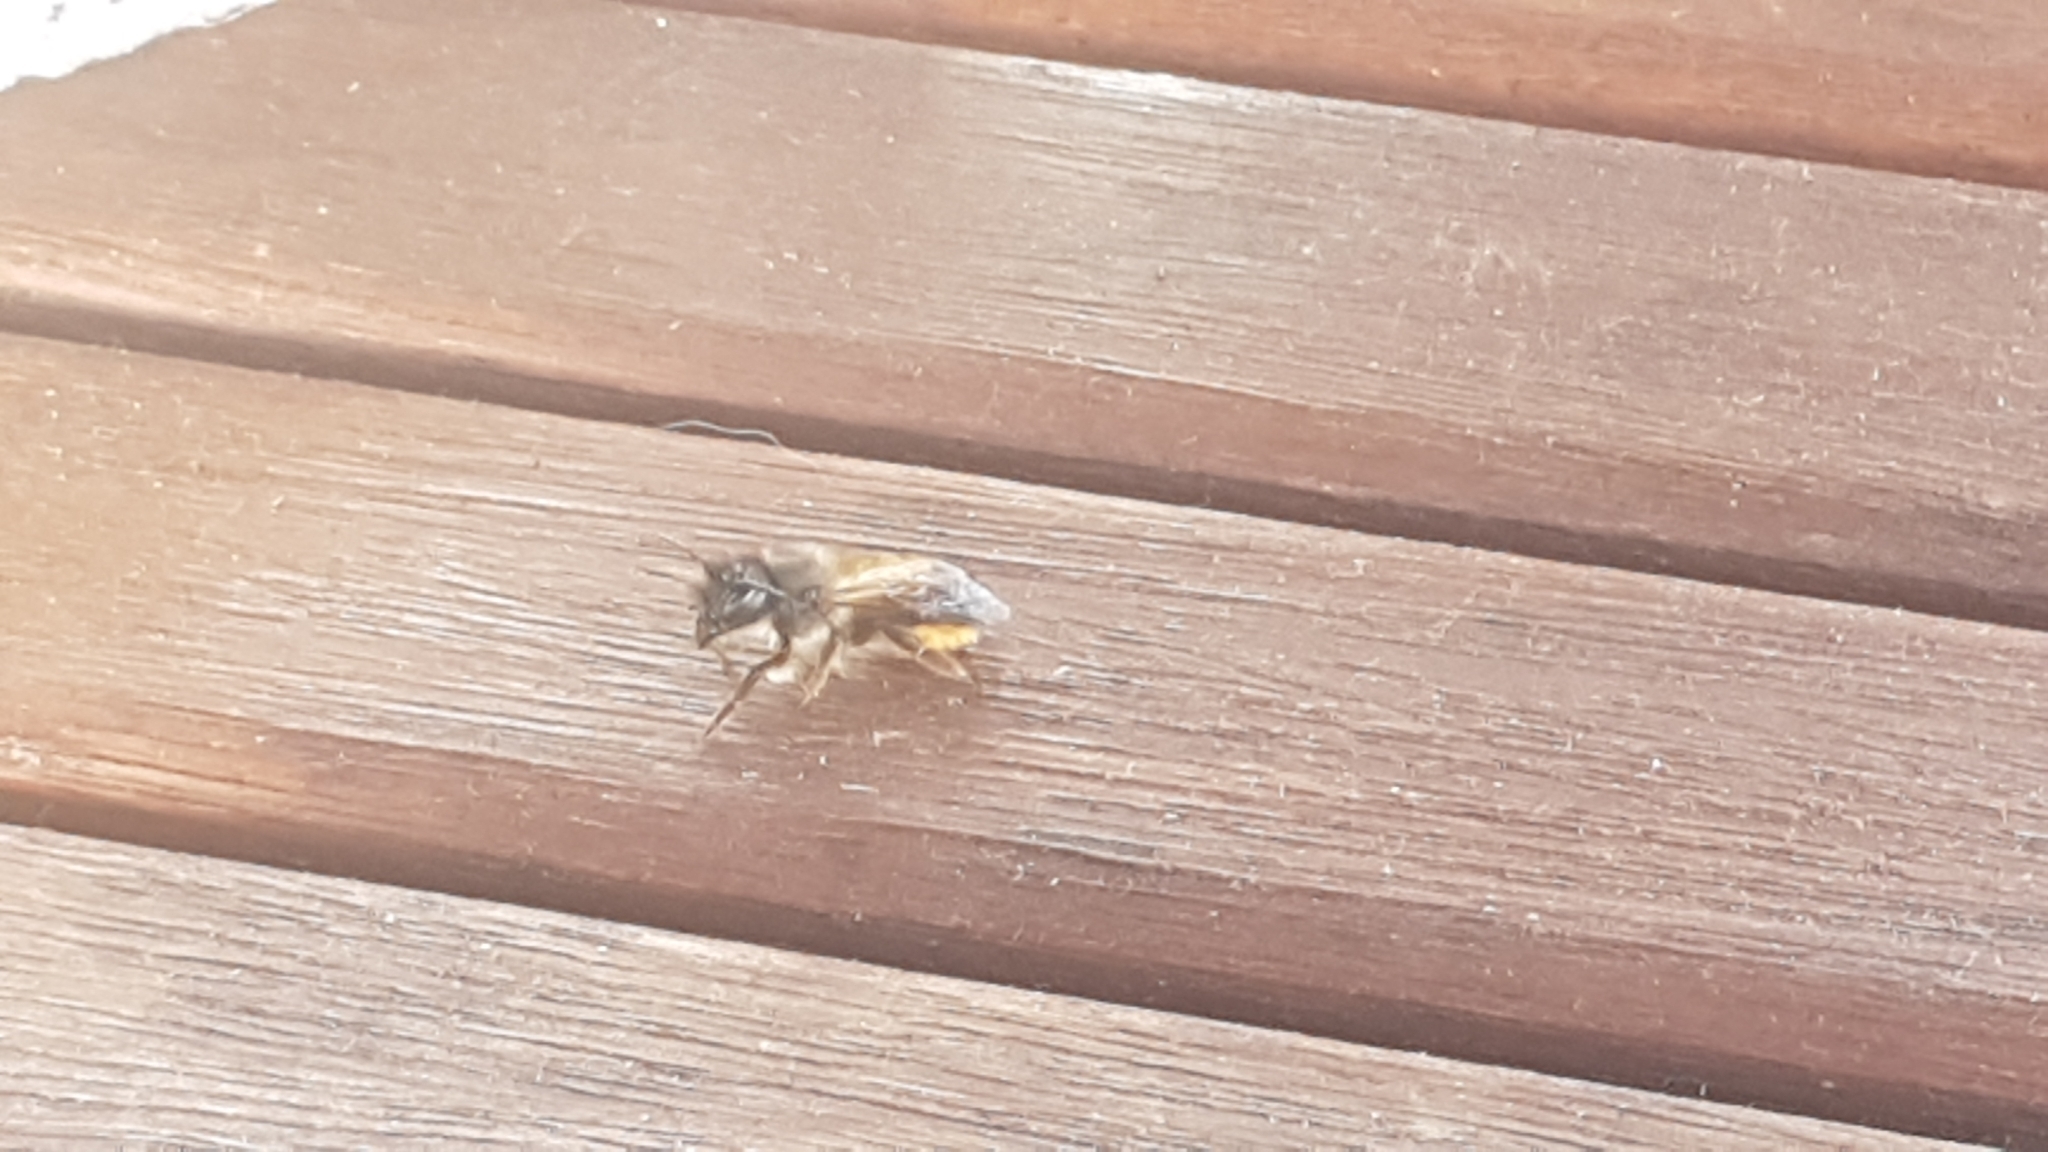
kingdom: Animalia
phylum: Arthropoda
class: Insecta
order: Hymenoptera
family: Megachilidae
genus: Osmia
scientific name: Osmia bicornis
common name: Red mason bee
